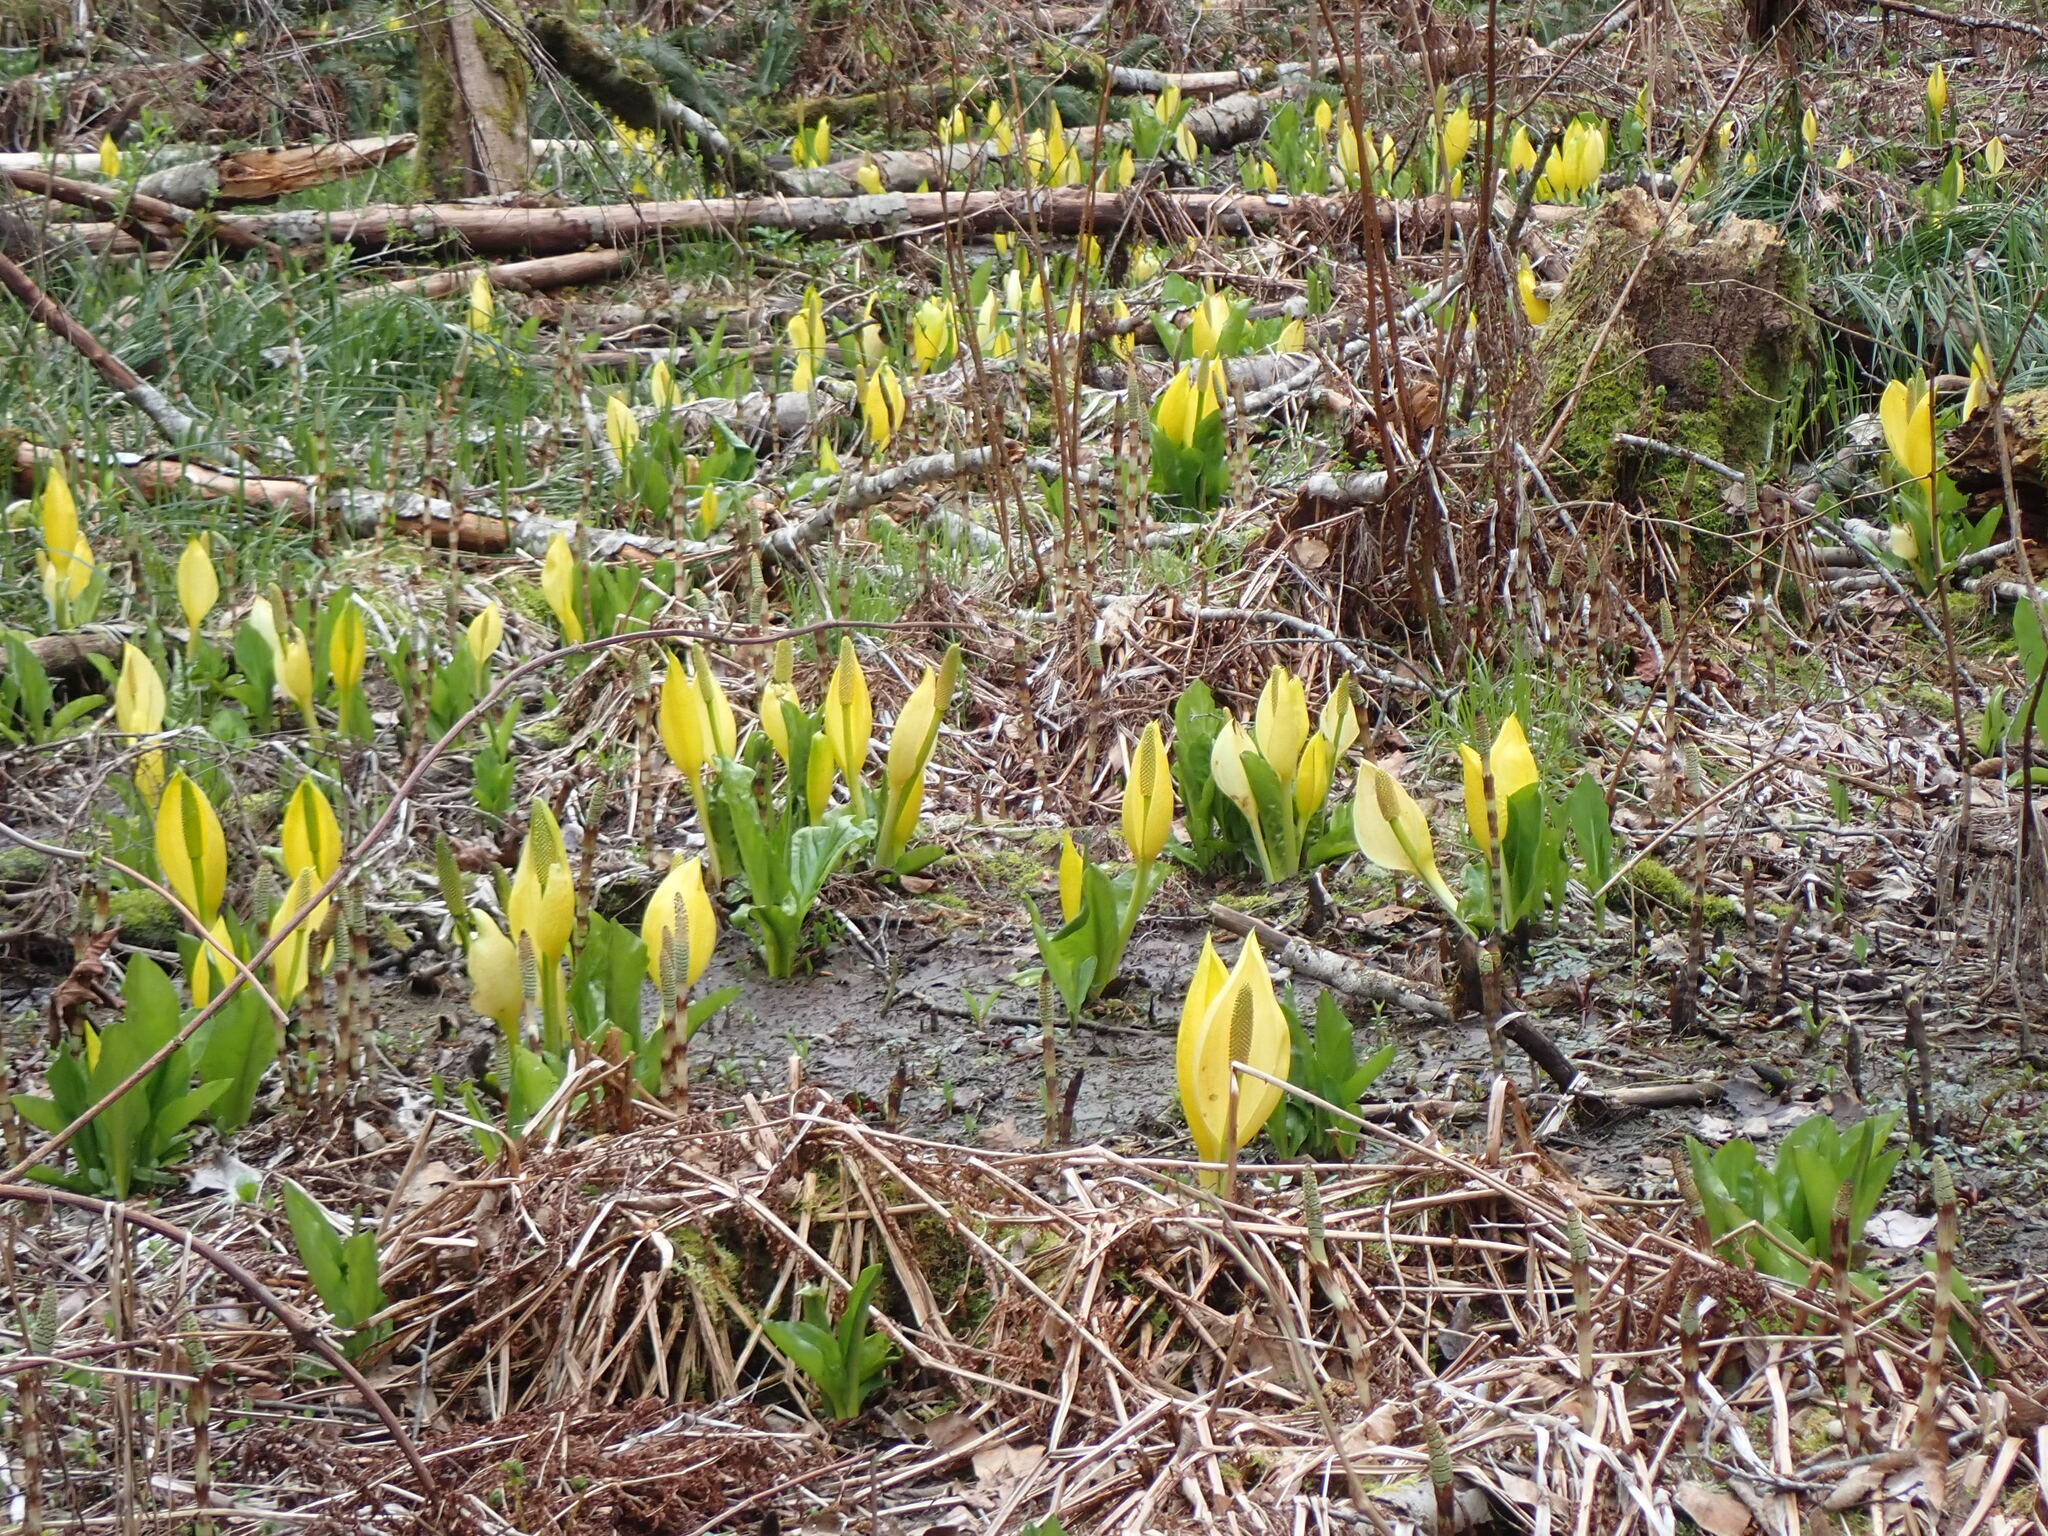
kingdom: Plantae
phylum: Tracheophyta
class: Liliopsida
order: Alismatales
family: Araceae
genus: Lysichiton
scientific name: Lysichiton americanus
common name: American skunk cabbage
